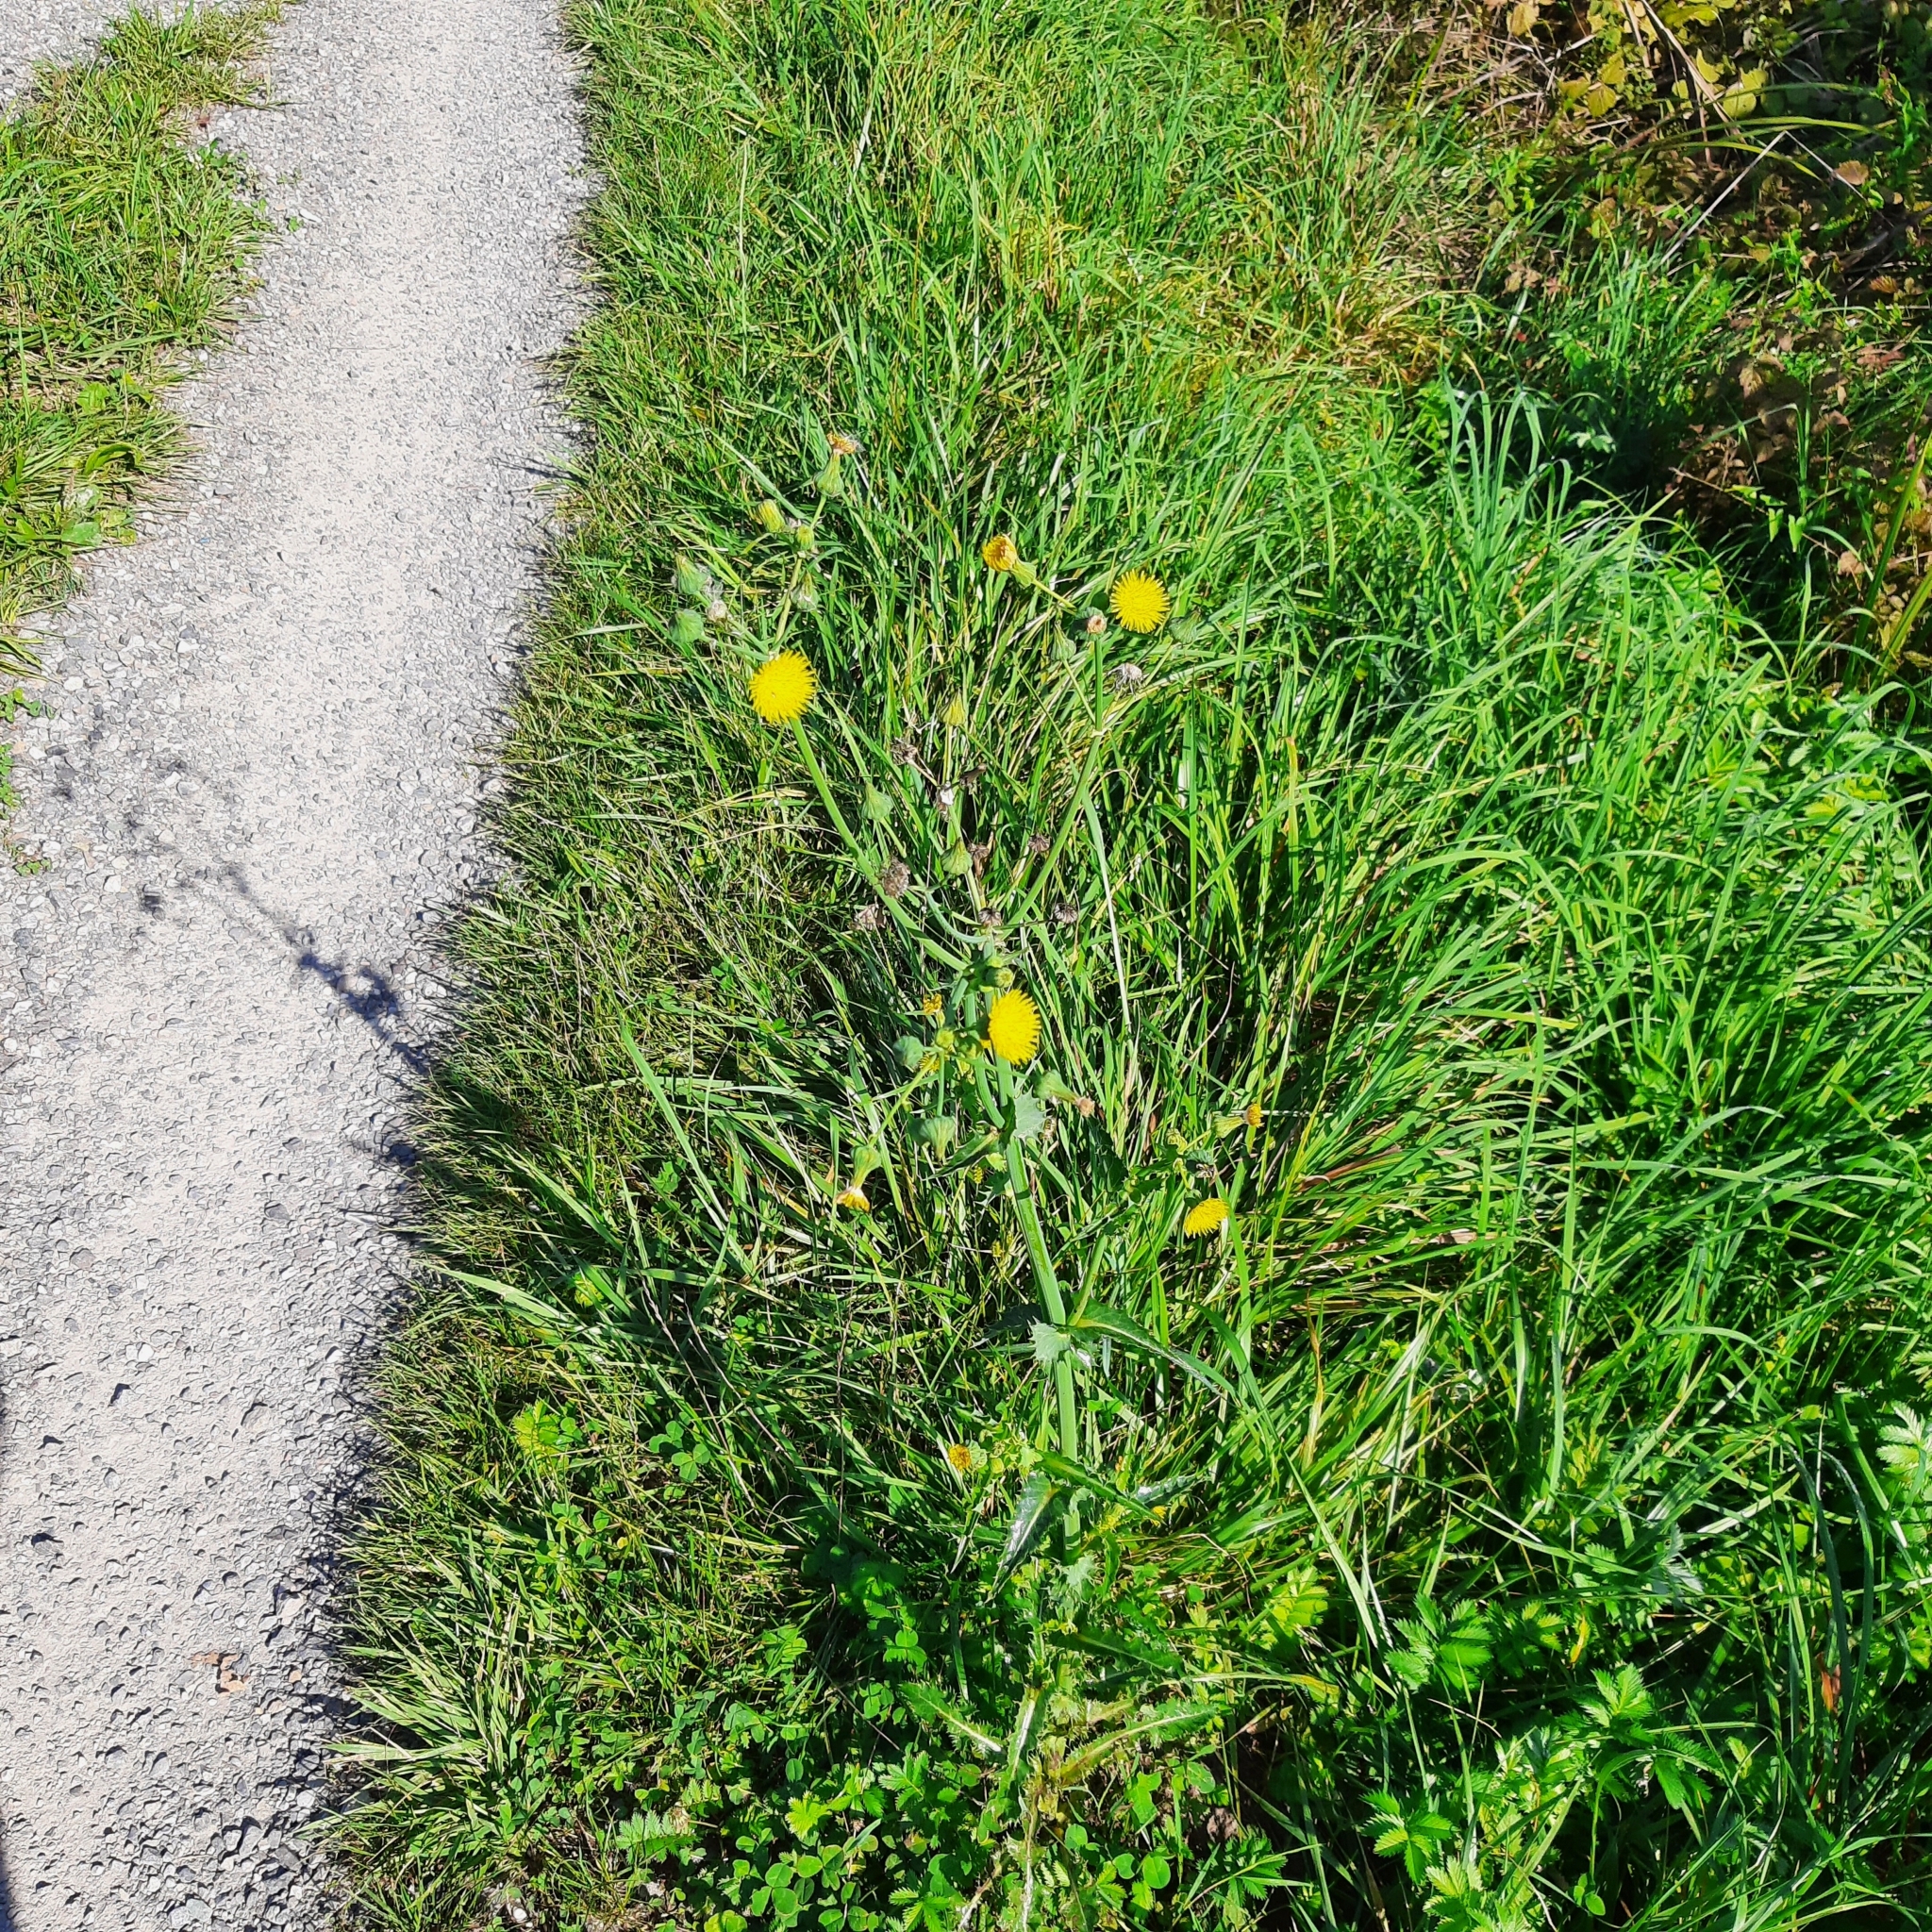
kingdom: Plantae
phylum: Tracheophyta
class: Magnoliopsida
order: Asterales
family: Asteraceae
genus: Sonchus
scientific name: Sonchus asper
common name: Prickly sow-thistle
